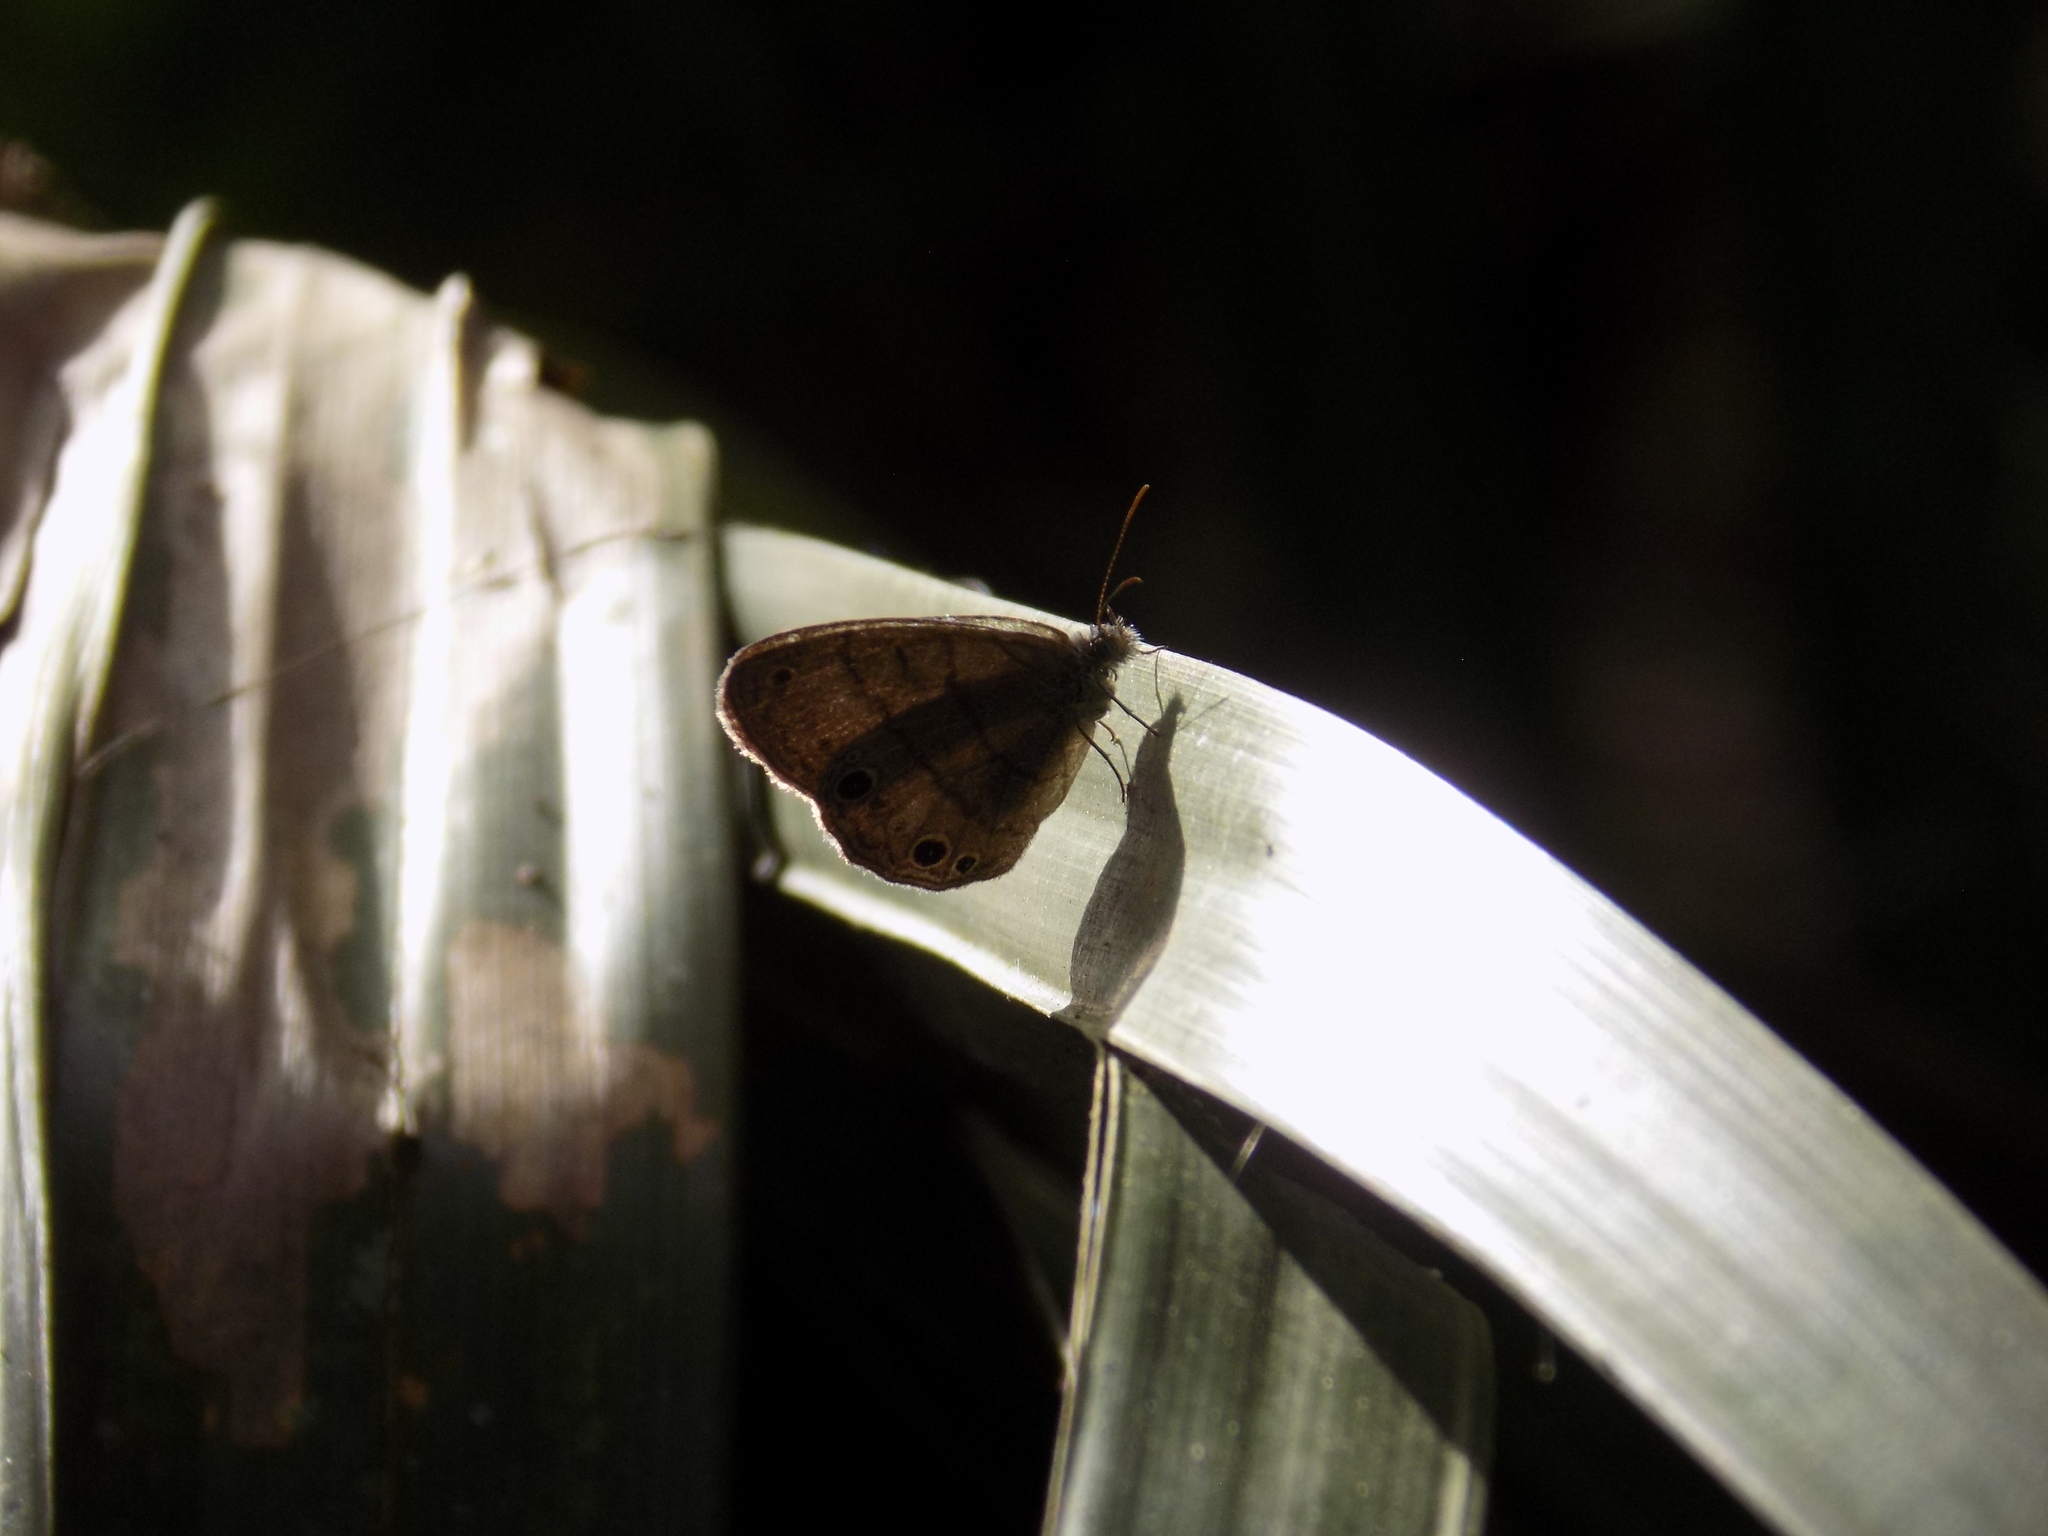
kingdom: Animalia
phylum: Arthropoda
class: Insecta
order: Lepidoptera
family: Nymphalidae
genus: Hermeuptychia
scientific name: Hermeuptychia
